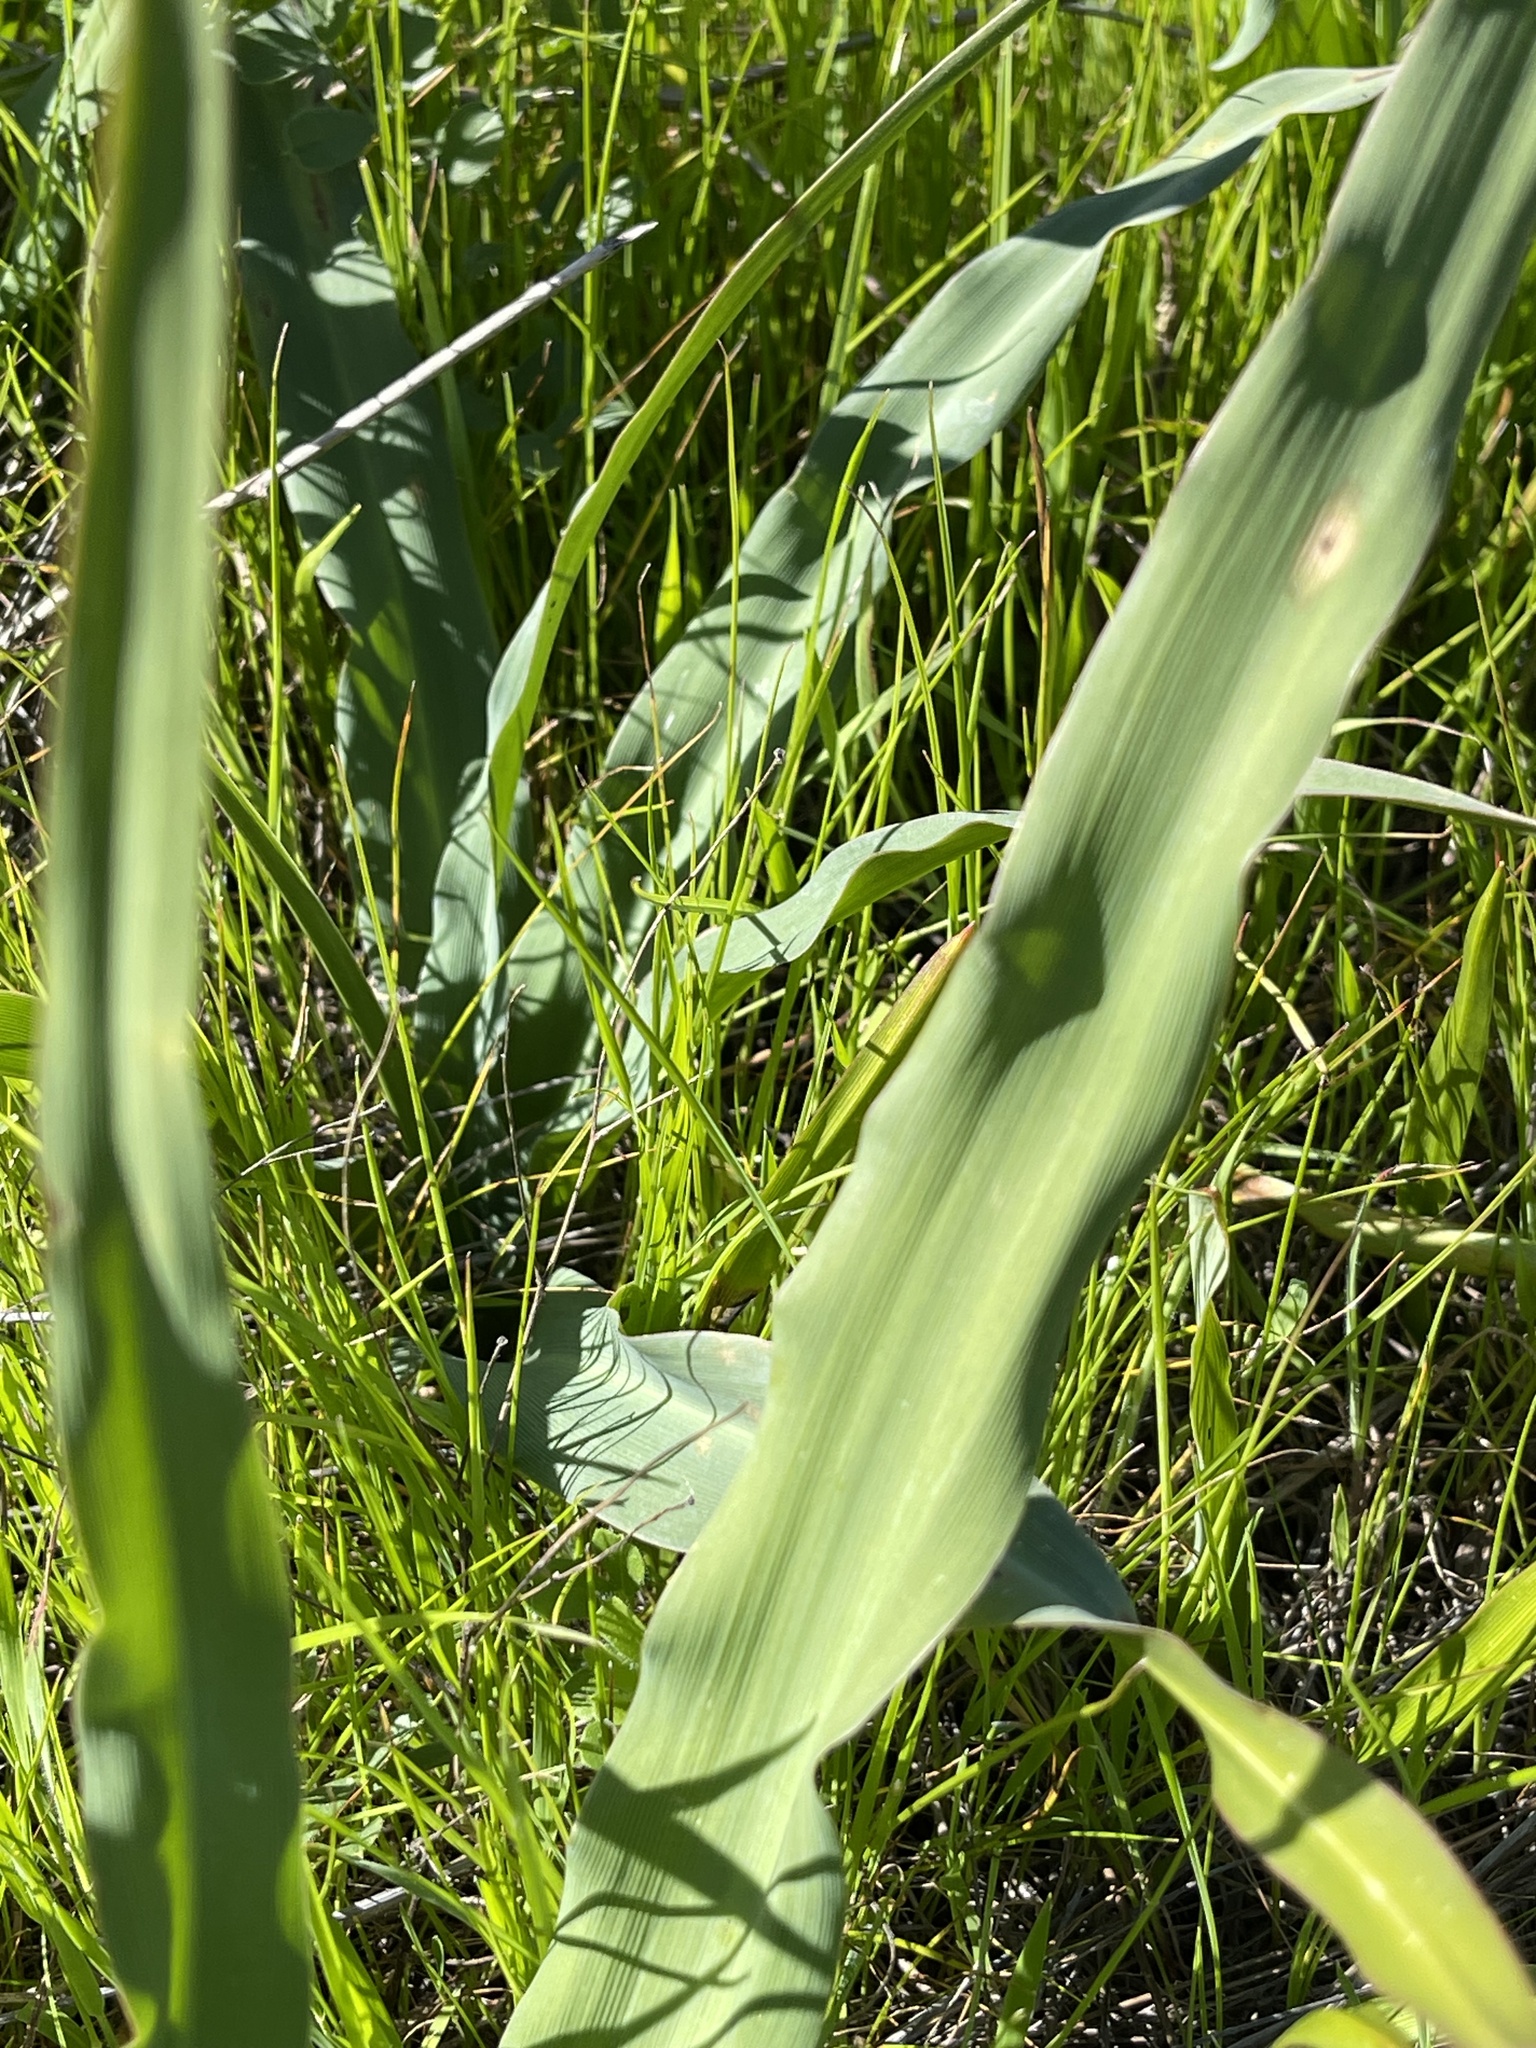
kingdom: Plantae
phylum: Tracheophyta
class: Liliopsida
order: Asparagales
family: Asparagaceae
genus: Chlorogalum
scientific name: Chlorogalum pomeridianum
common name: Amole
